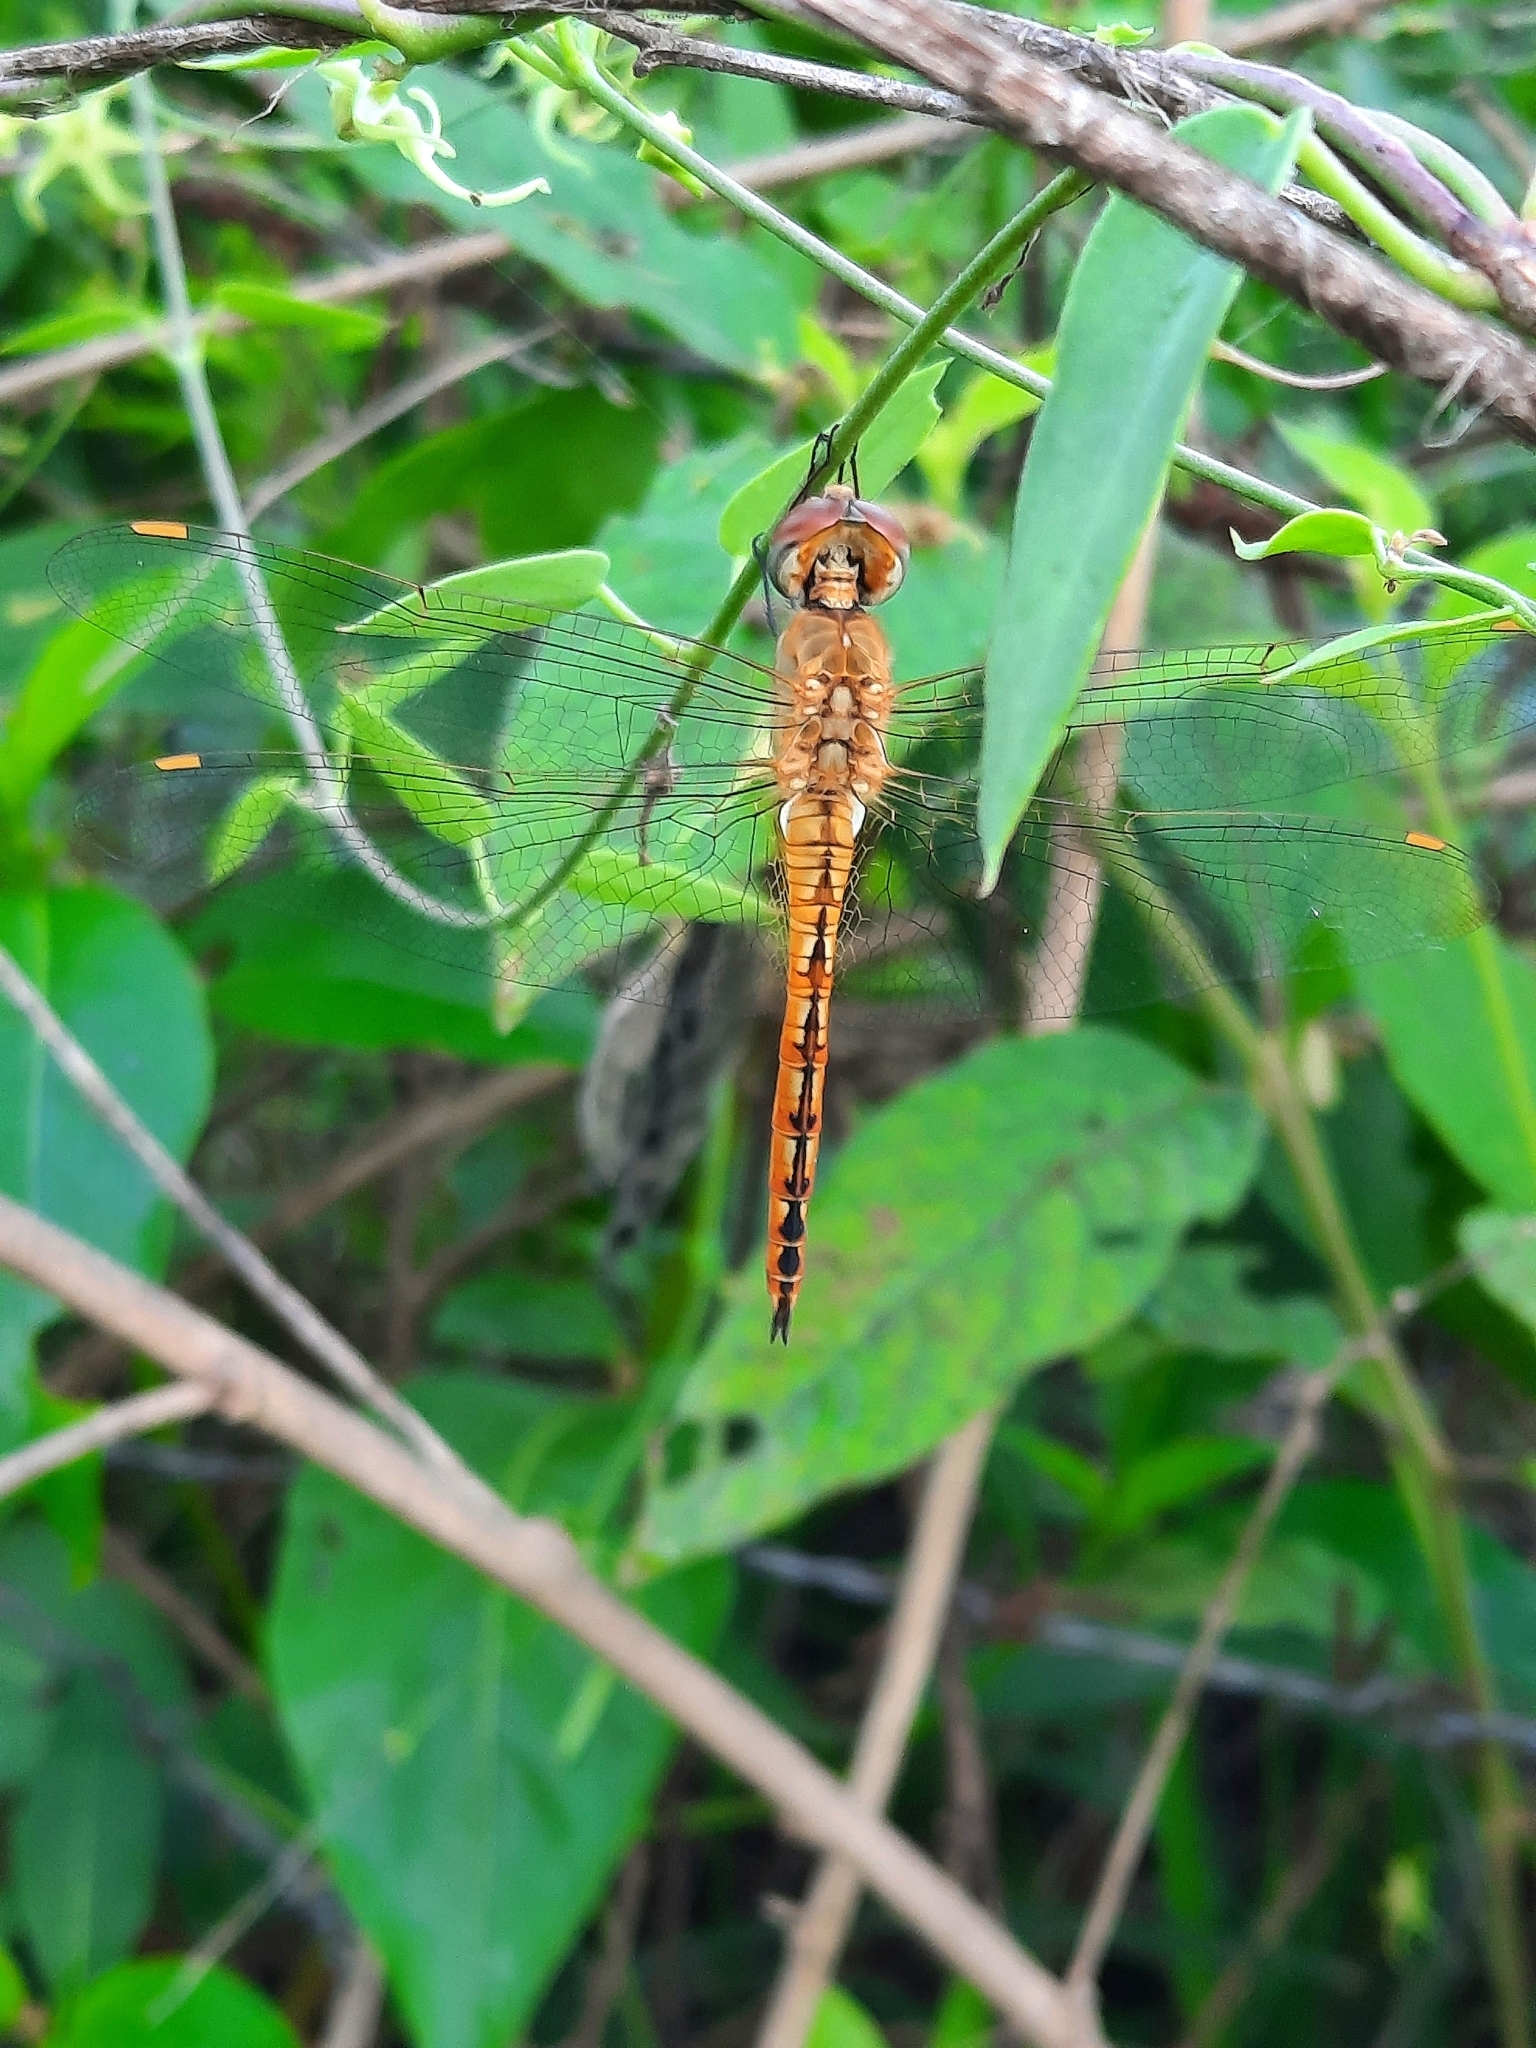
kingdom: Animalia
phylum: Arthropoda
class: Insecta
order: Odonata
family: Libellulidae
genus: Pantala
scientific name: Pantala flavescens
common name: Wandering glider
